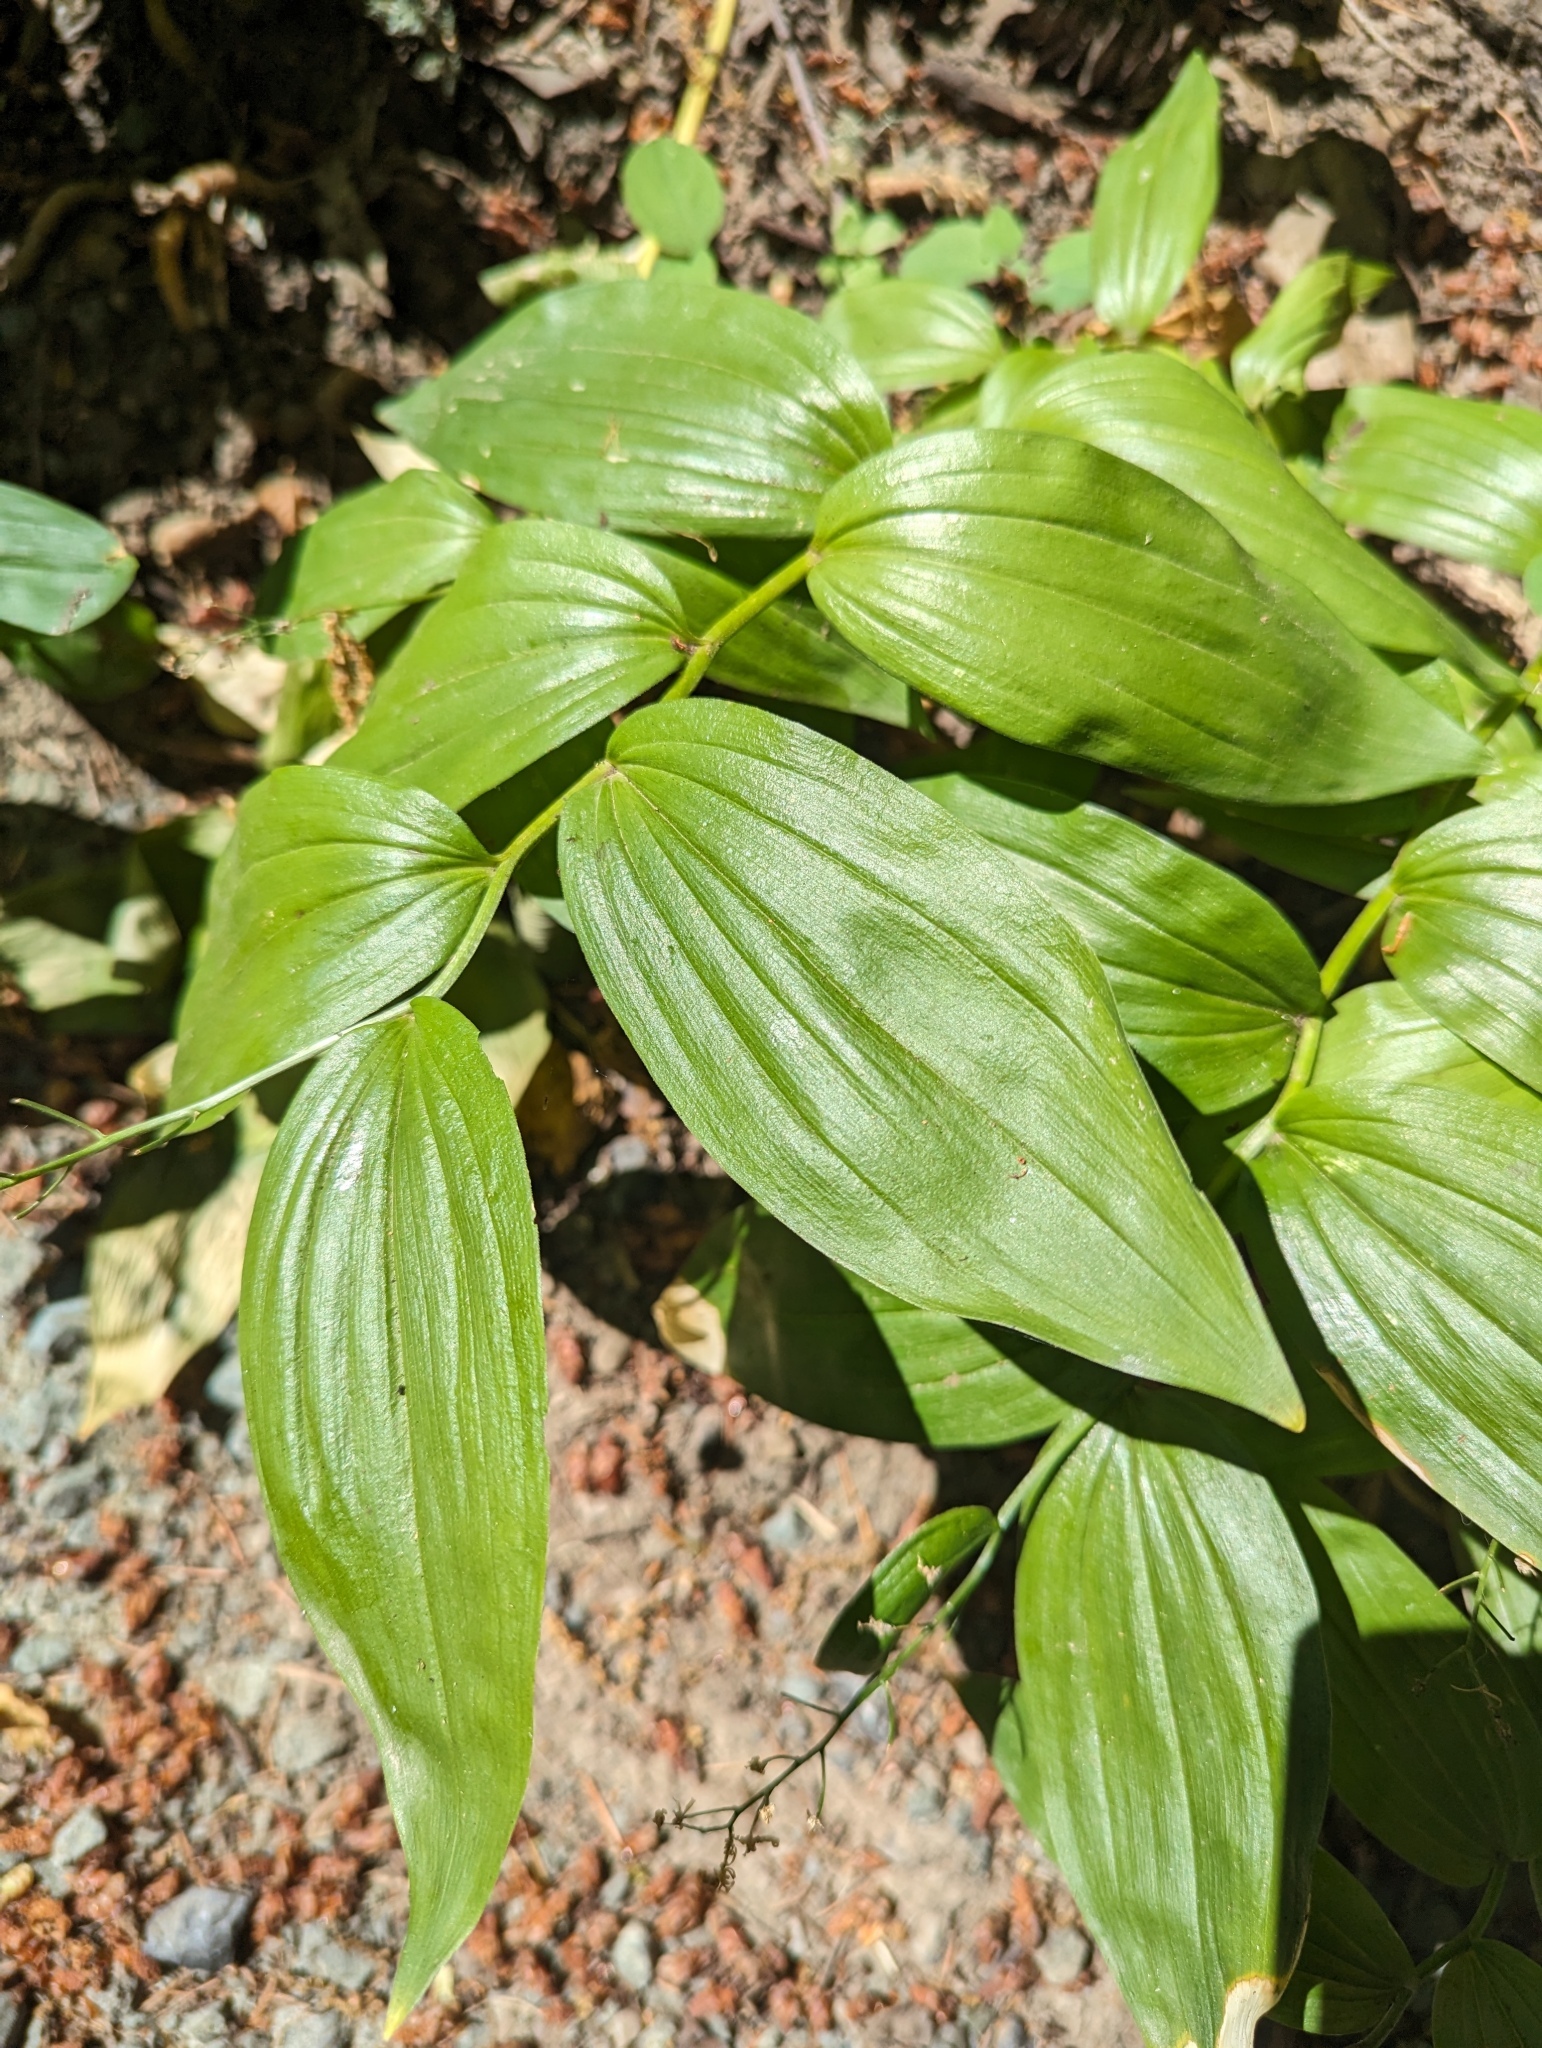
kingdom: Plantae
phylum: Tracheophyta
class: Liliopsida
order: Asparagales
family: Asparagaceae
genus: Maianthemum
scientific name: Maianthemum stellatum
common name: Little false solomon's seal
